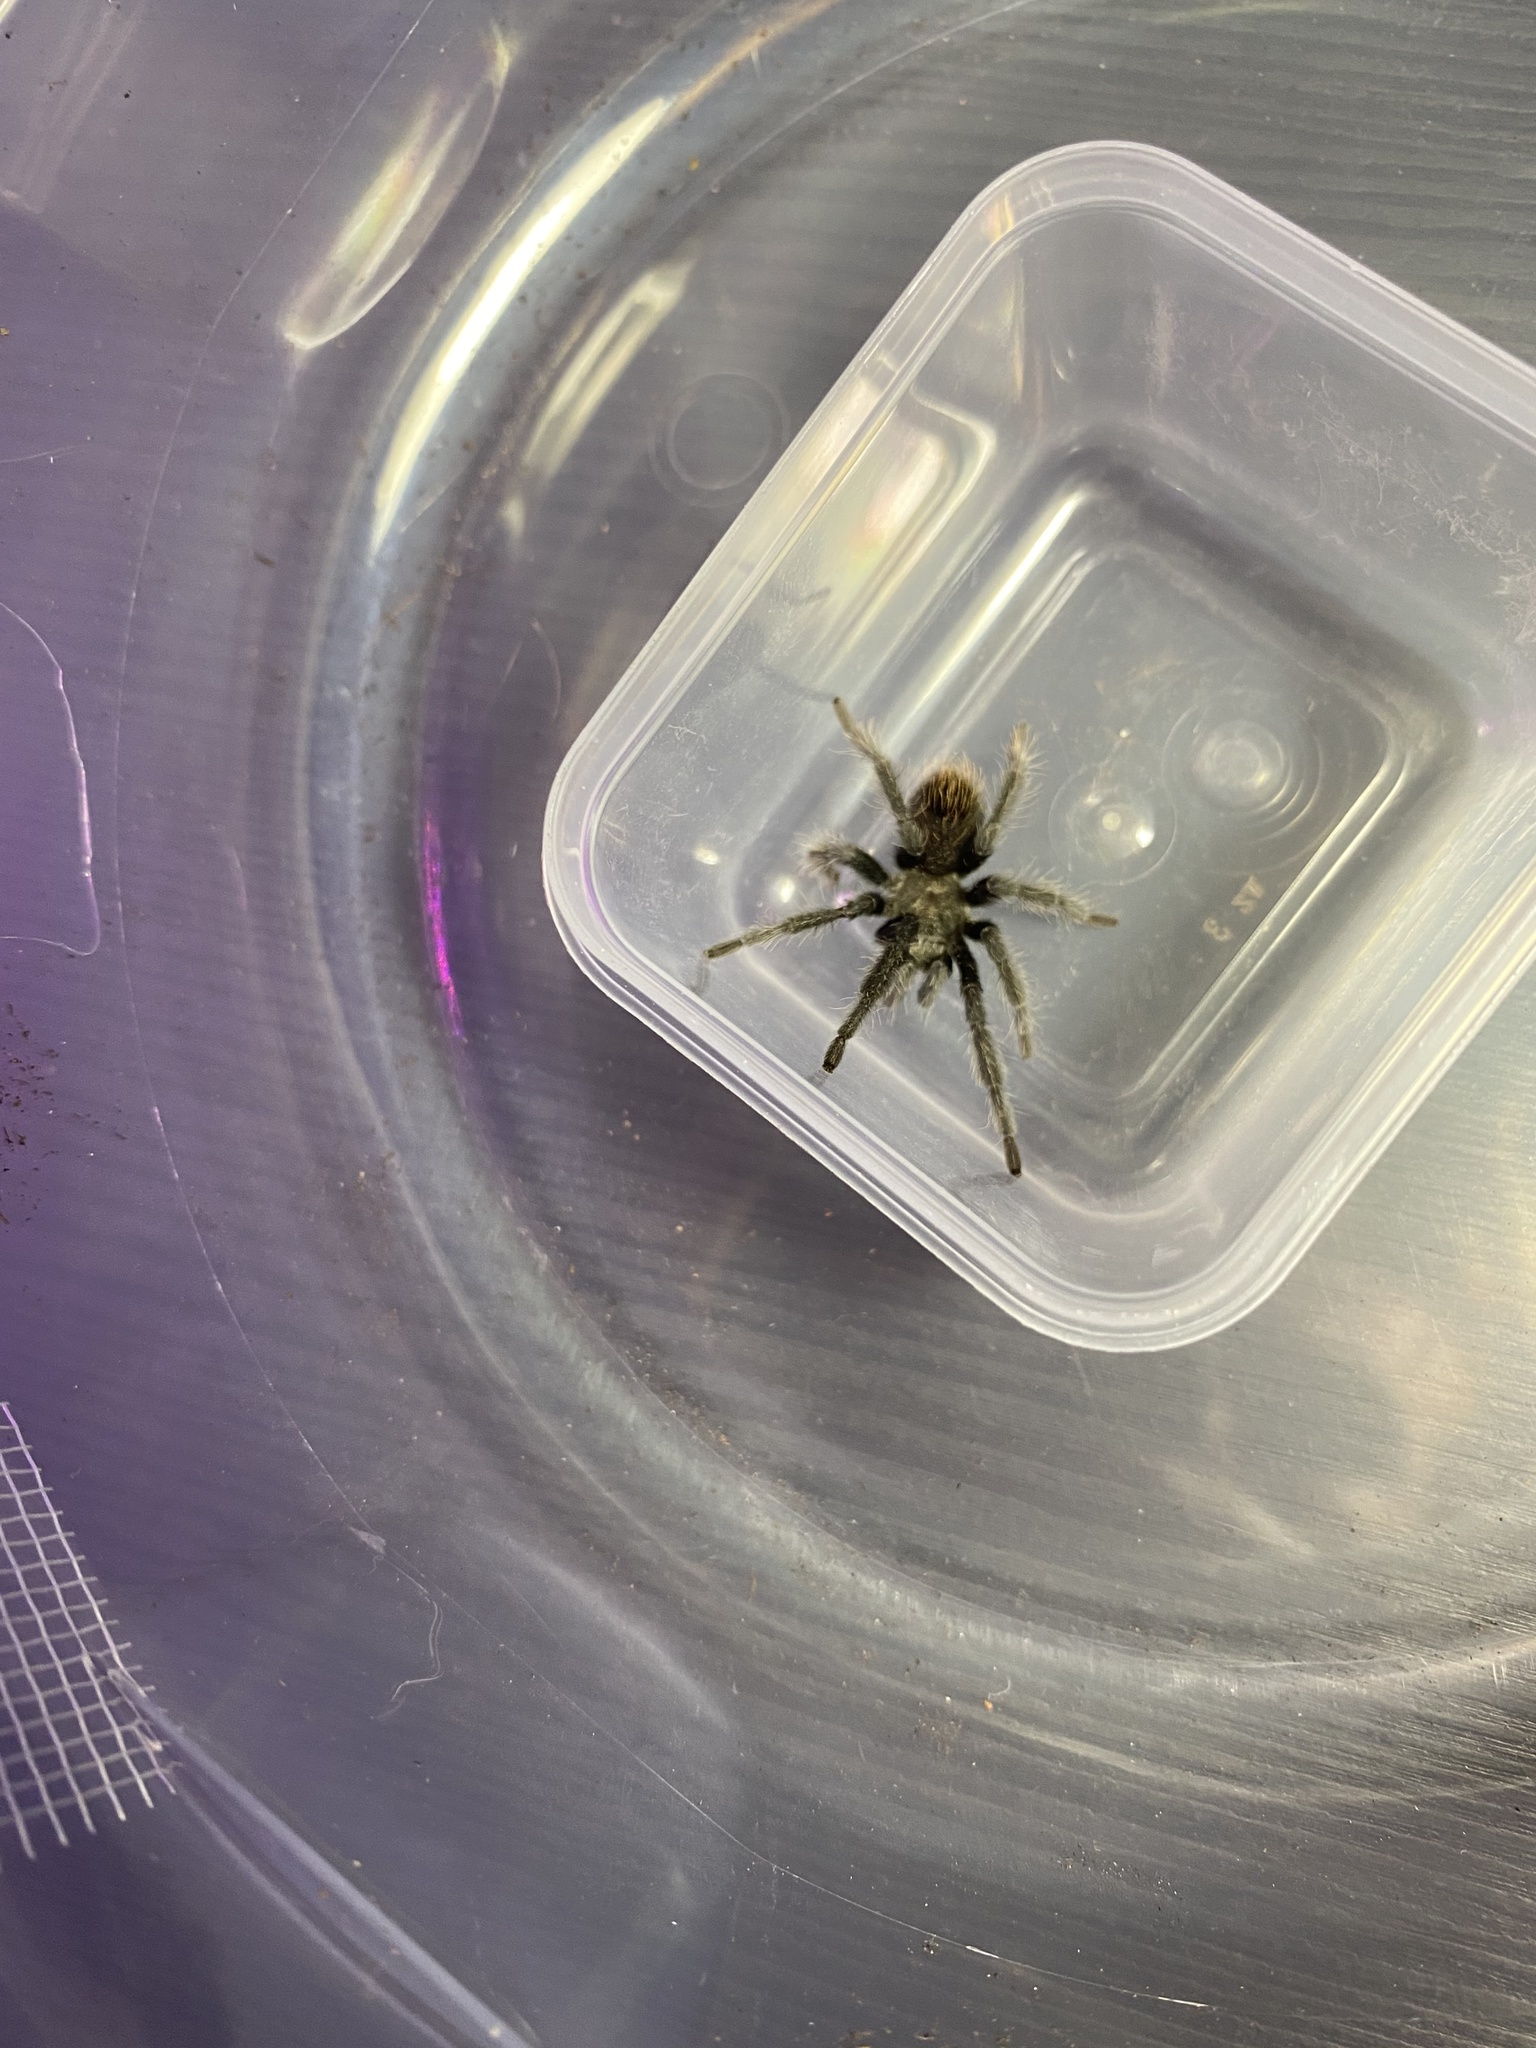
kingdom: Animalia
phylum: Arthropoda
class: Arachnida
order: Araneae
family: Theraphosidae
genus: Aphonopelma
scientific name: Aphonopelma superstitionense
